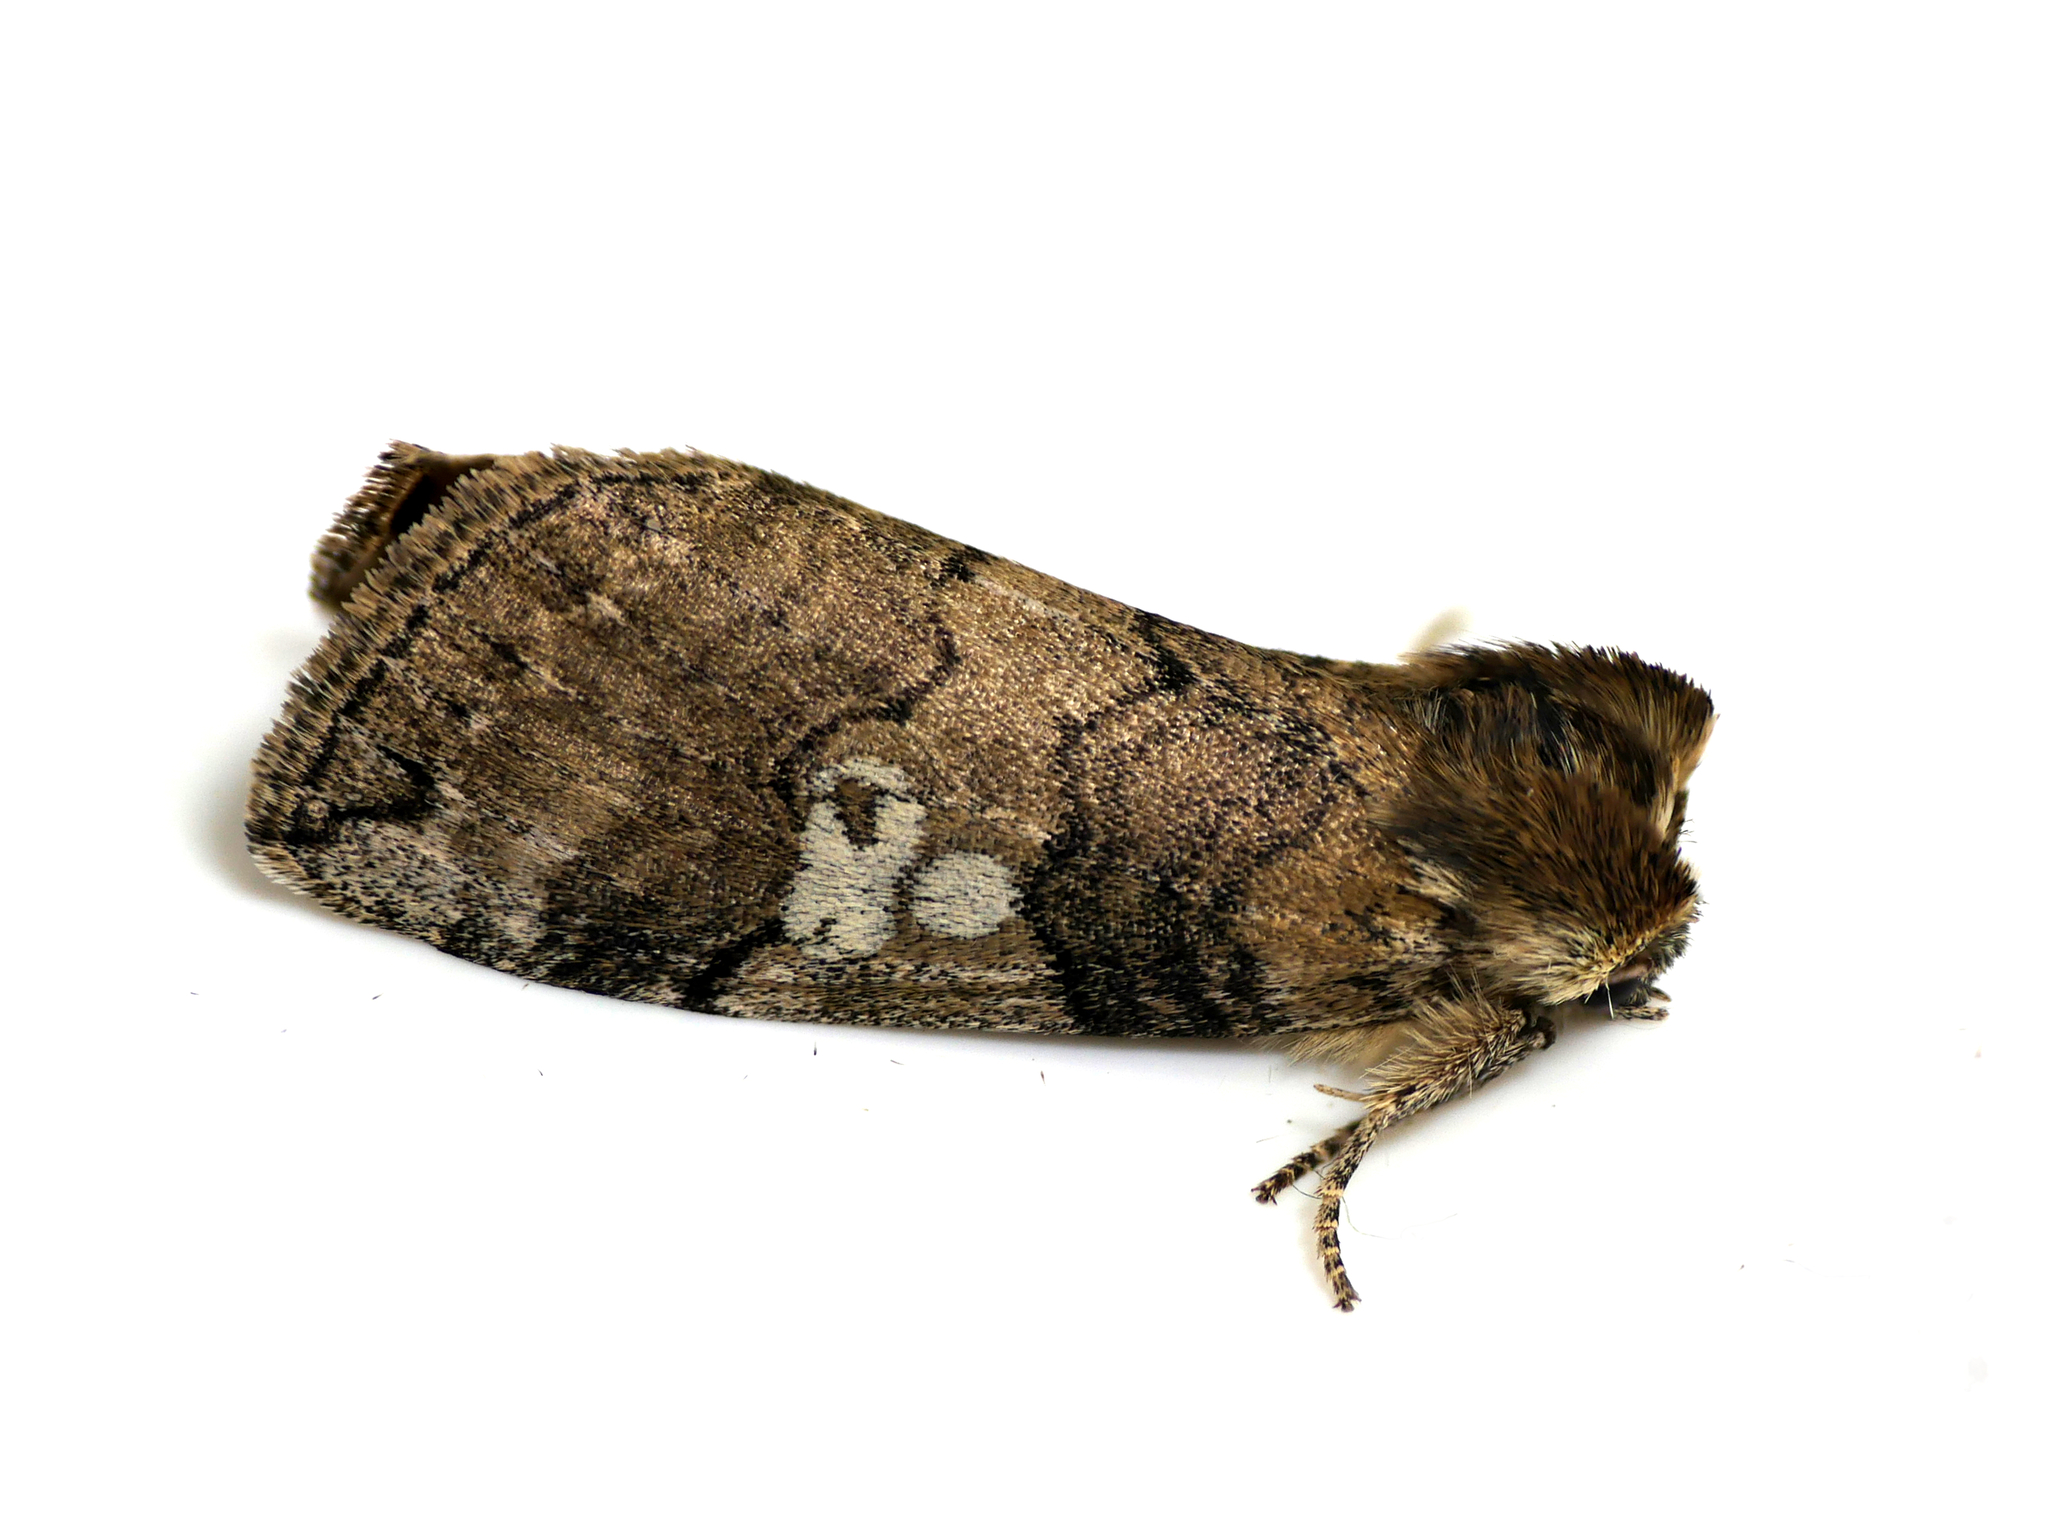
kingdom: Animalia
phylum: Arthropoda
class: Insecta
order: Lepidoptera
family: Drepanidae
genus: Tethea
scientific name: Tethea or
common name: Poplar lutestring
